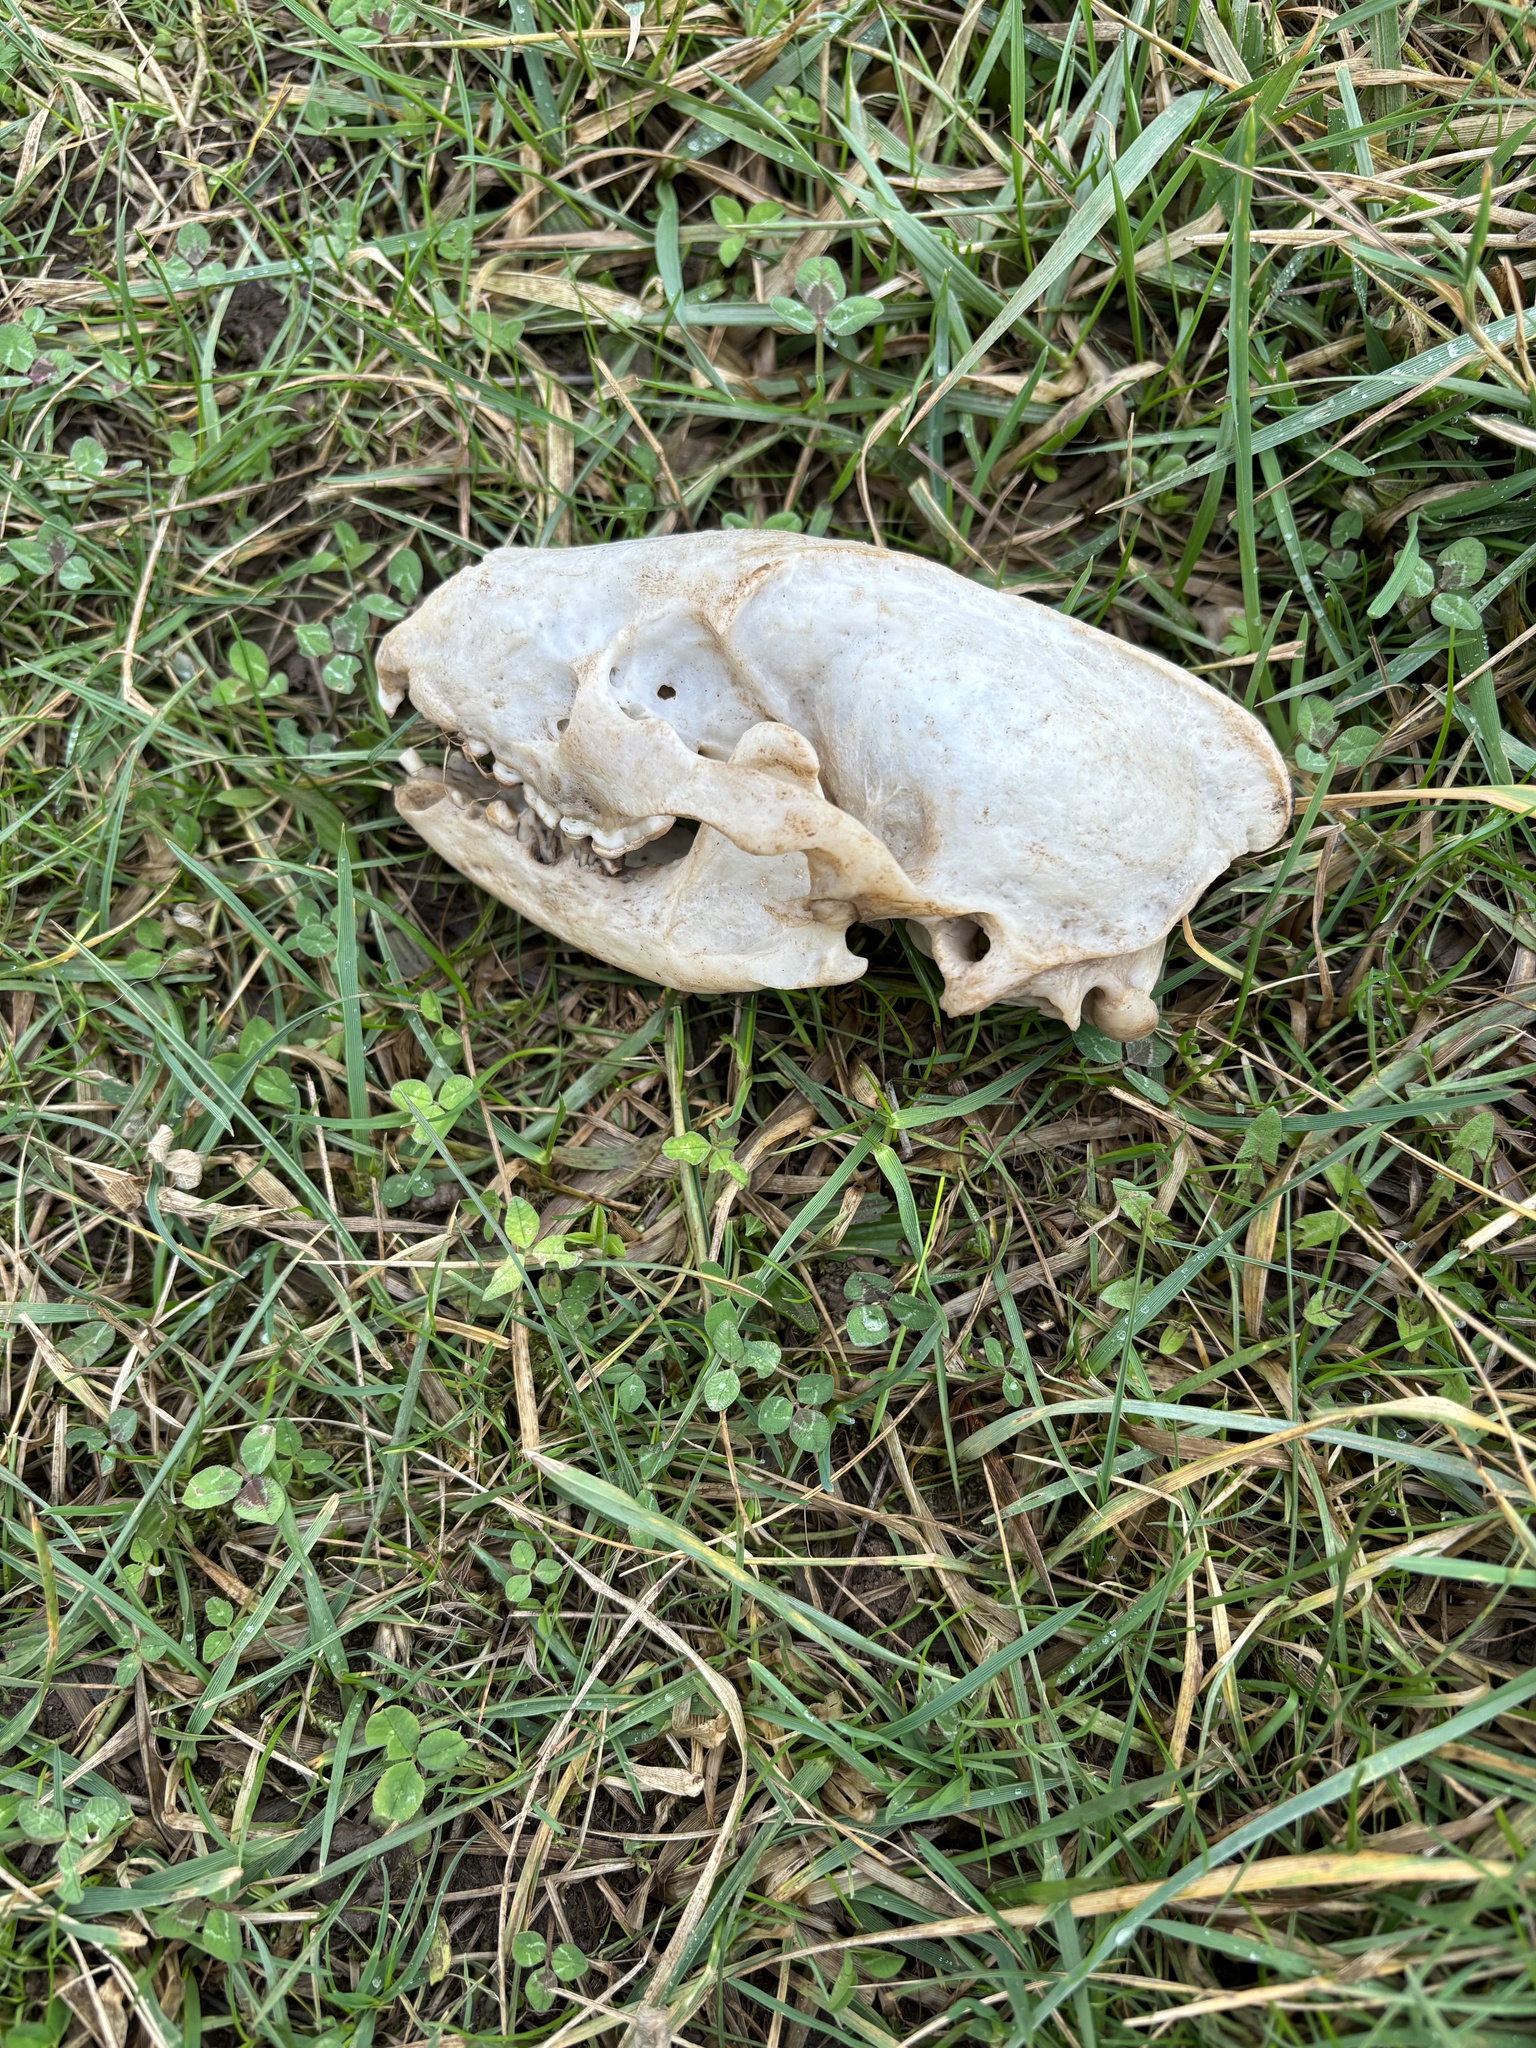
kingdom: Animalia
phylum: Chordata
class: Mammalia
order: Carnivora
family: Mustelidae
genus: Meles
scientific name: Meles meles
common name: Eurasian badger
